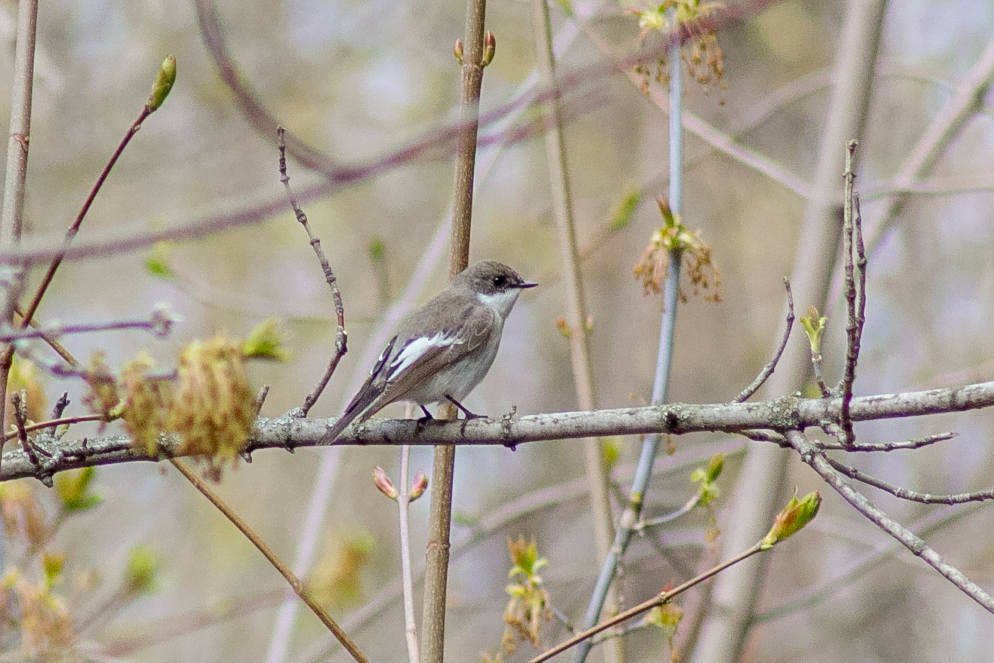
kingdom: Animalia
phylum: Chordata
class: Aves
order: Passeriformes
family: Muscicapidae
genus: Ficedula
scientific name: Ficedula hypoleuca
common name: European pied flycatcher
